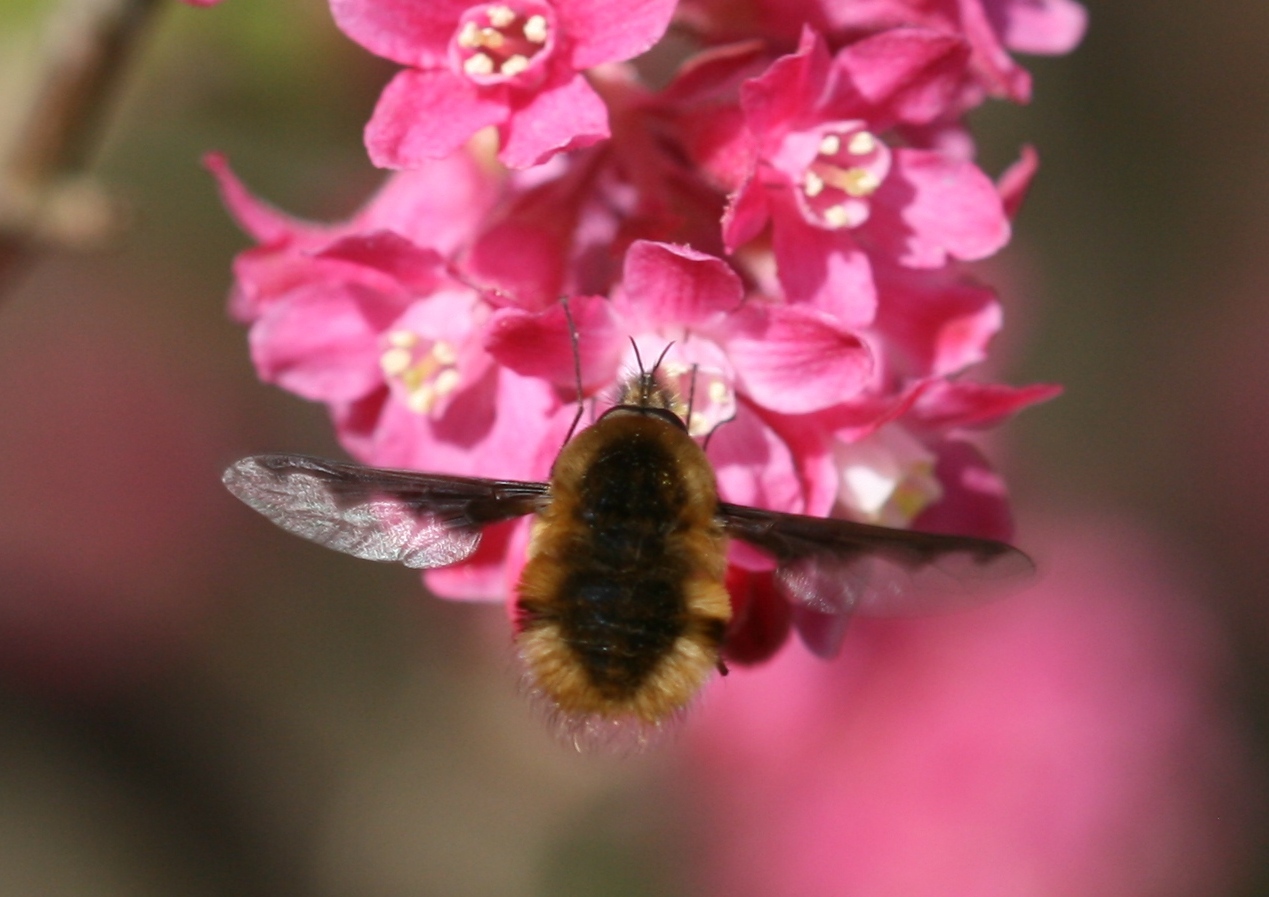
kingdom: Animalia
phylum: Arthropoda
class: Insecta
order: Diptera
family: Bombyliidae
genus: Bombylius
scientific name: Bombylius major
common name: Bee fly
